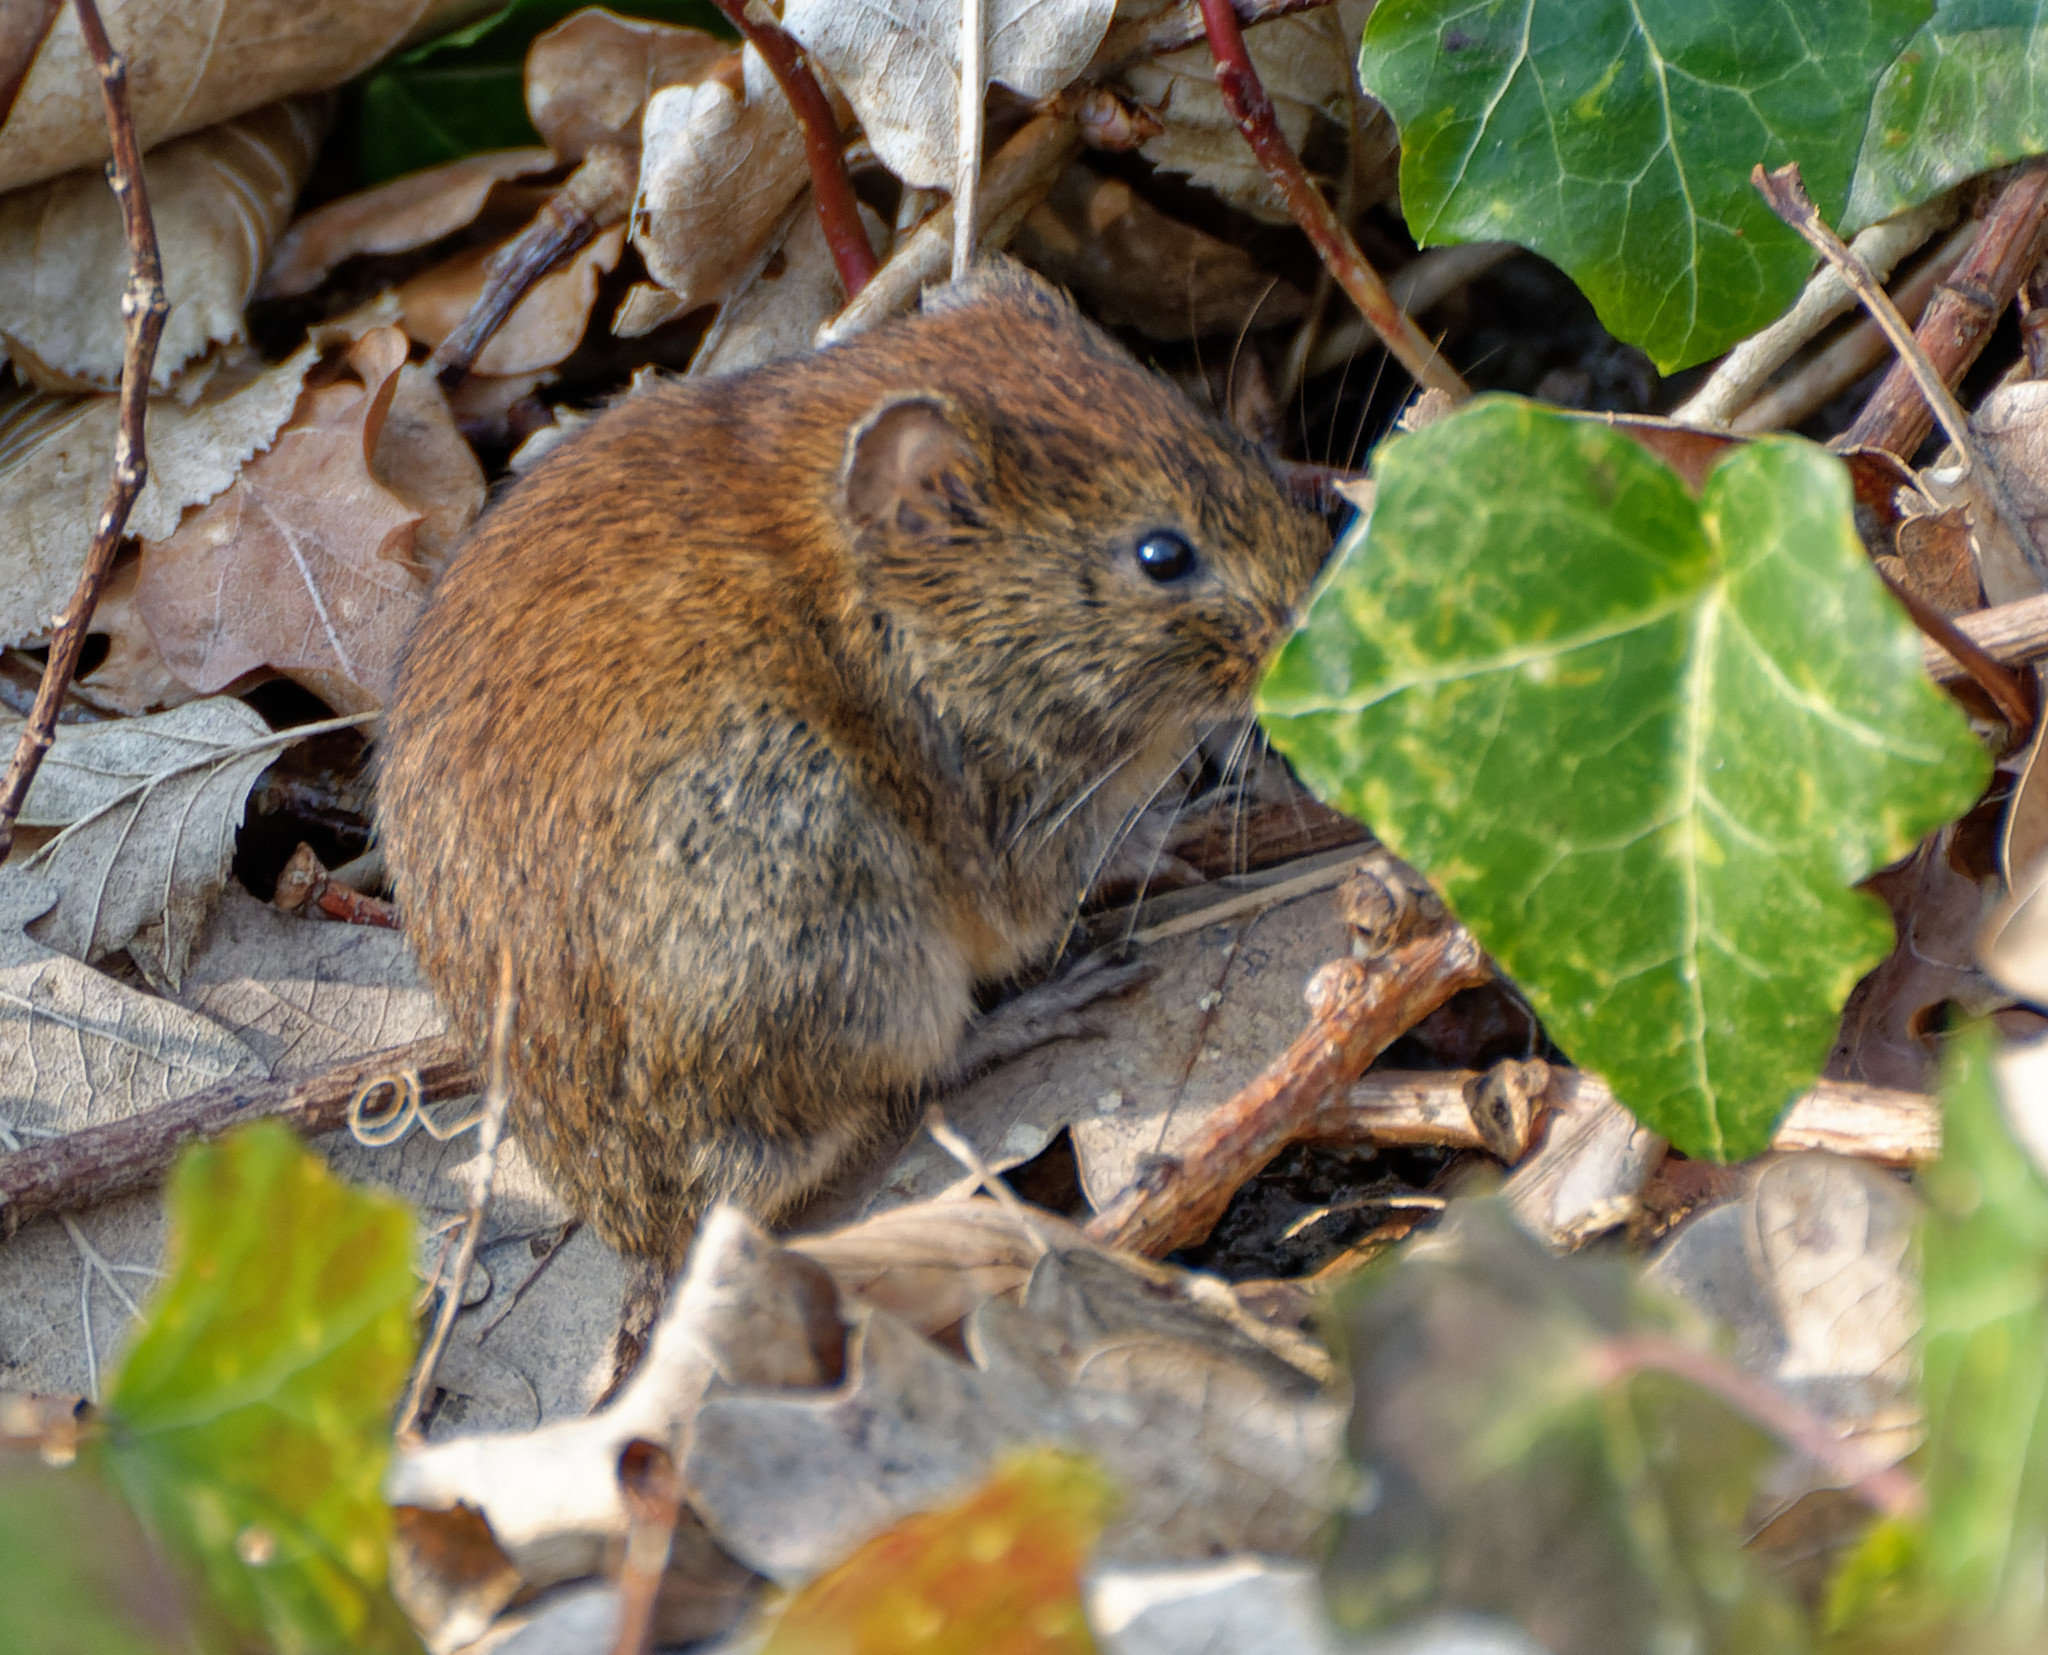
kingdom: Animalia
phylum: Chordata
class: Mammalia
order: Rodentia
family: Cricetidae
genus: Myodes
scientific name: Myodes glareolus
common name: Bank vole
